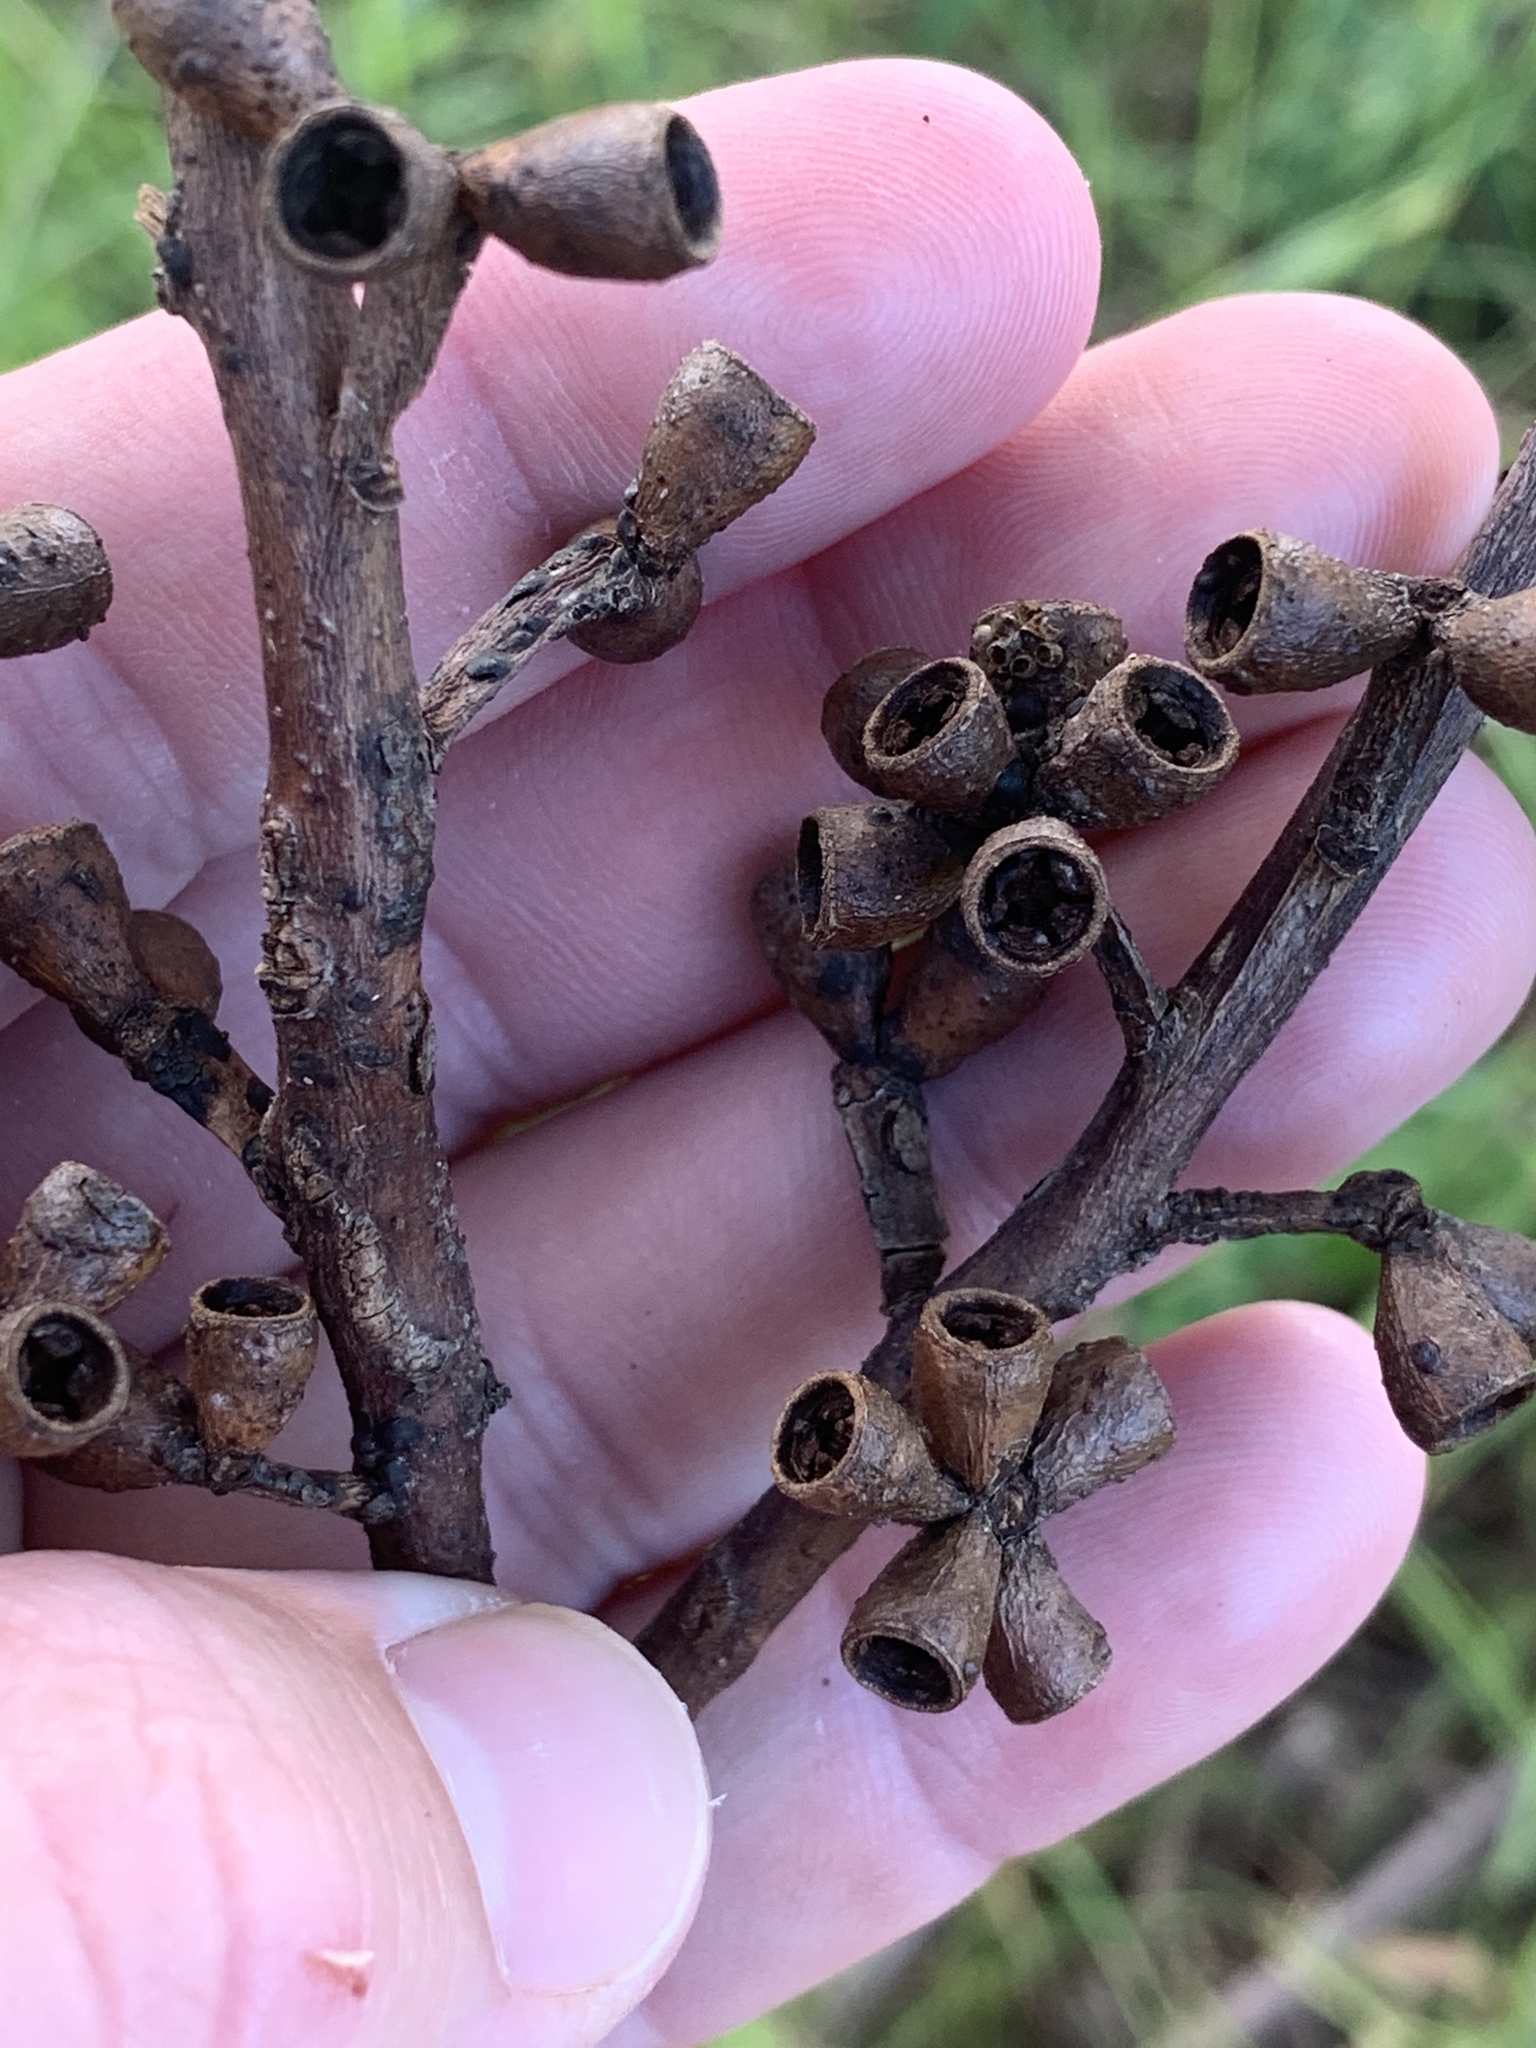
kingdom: Plantae
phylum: Tracheophyta
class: Magnoliopsida
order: Myrtales
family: Myrtaceae
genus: Eucalyptus
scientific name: Eucalyptus botryoides
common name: Bangalay
